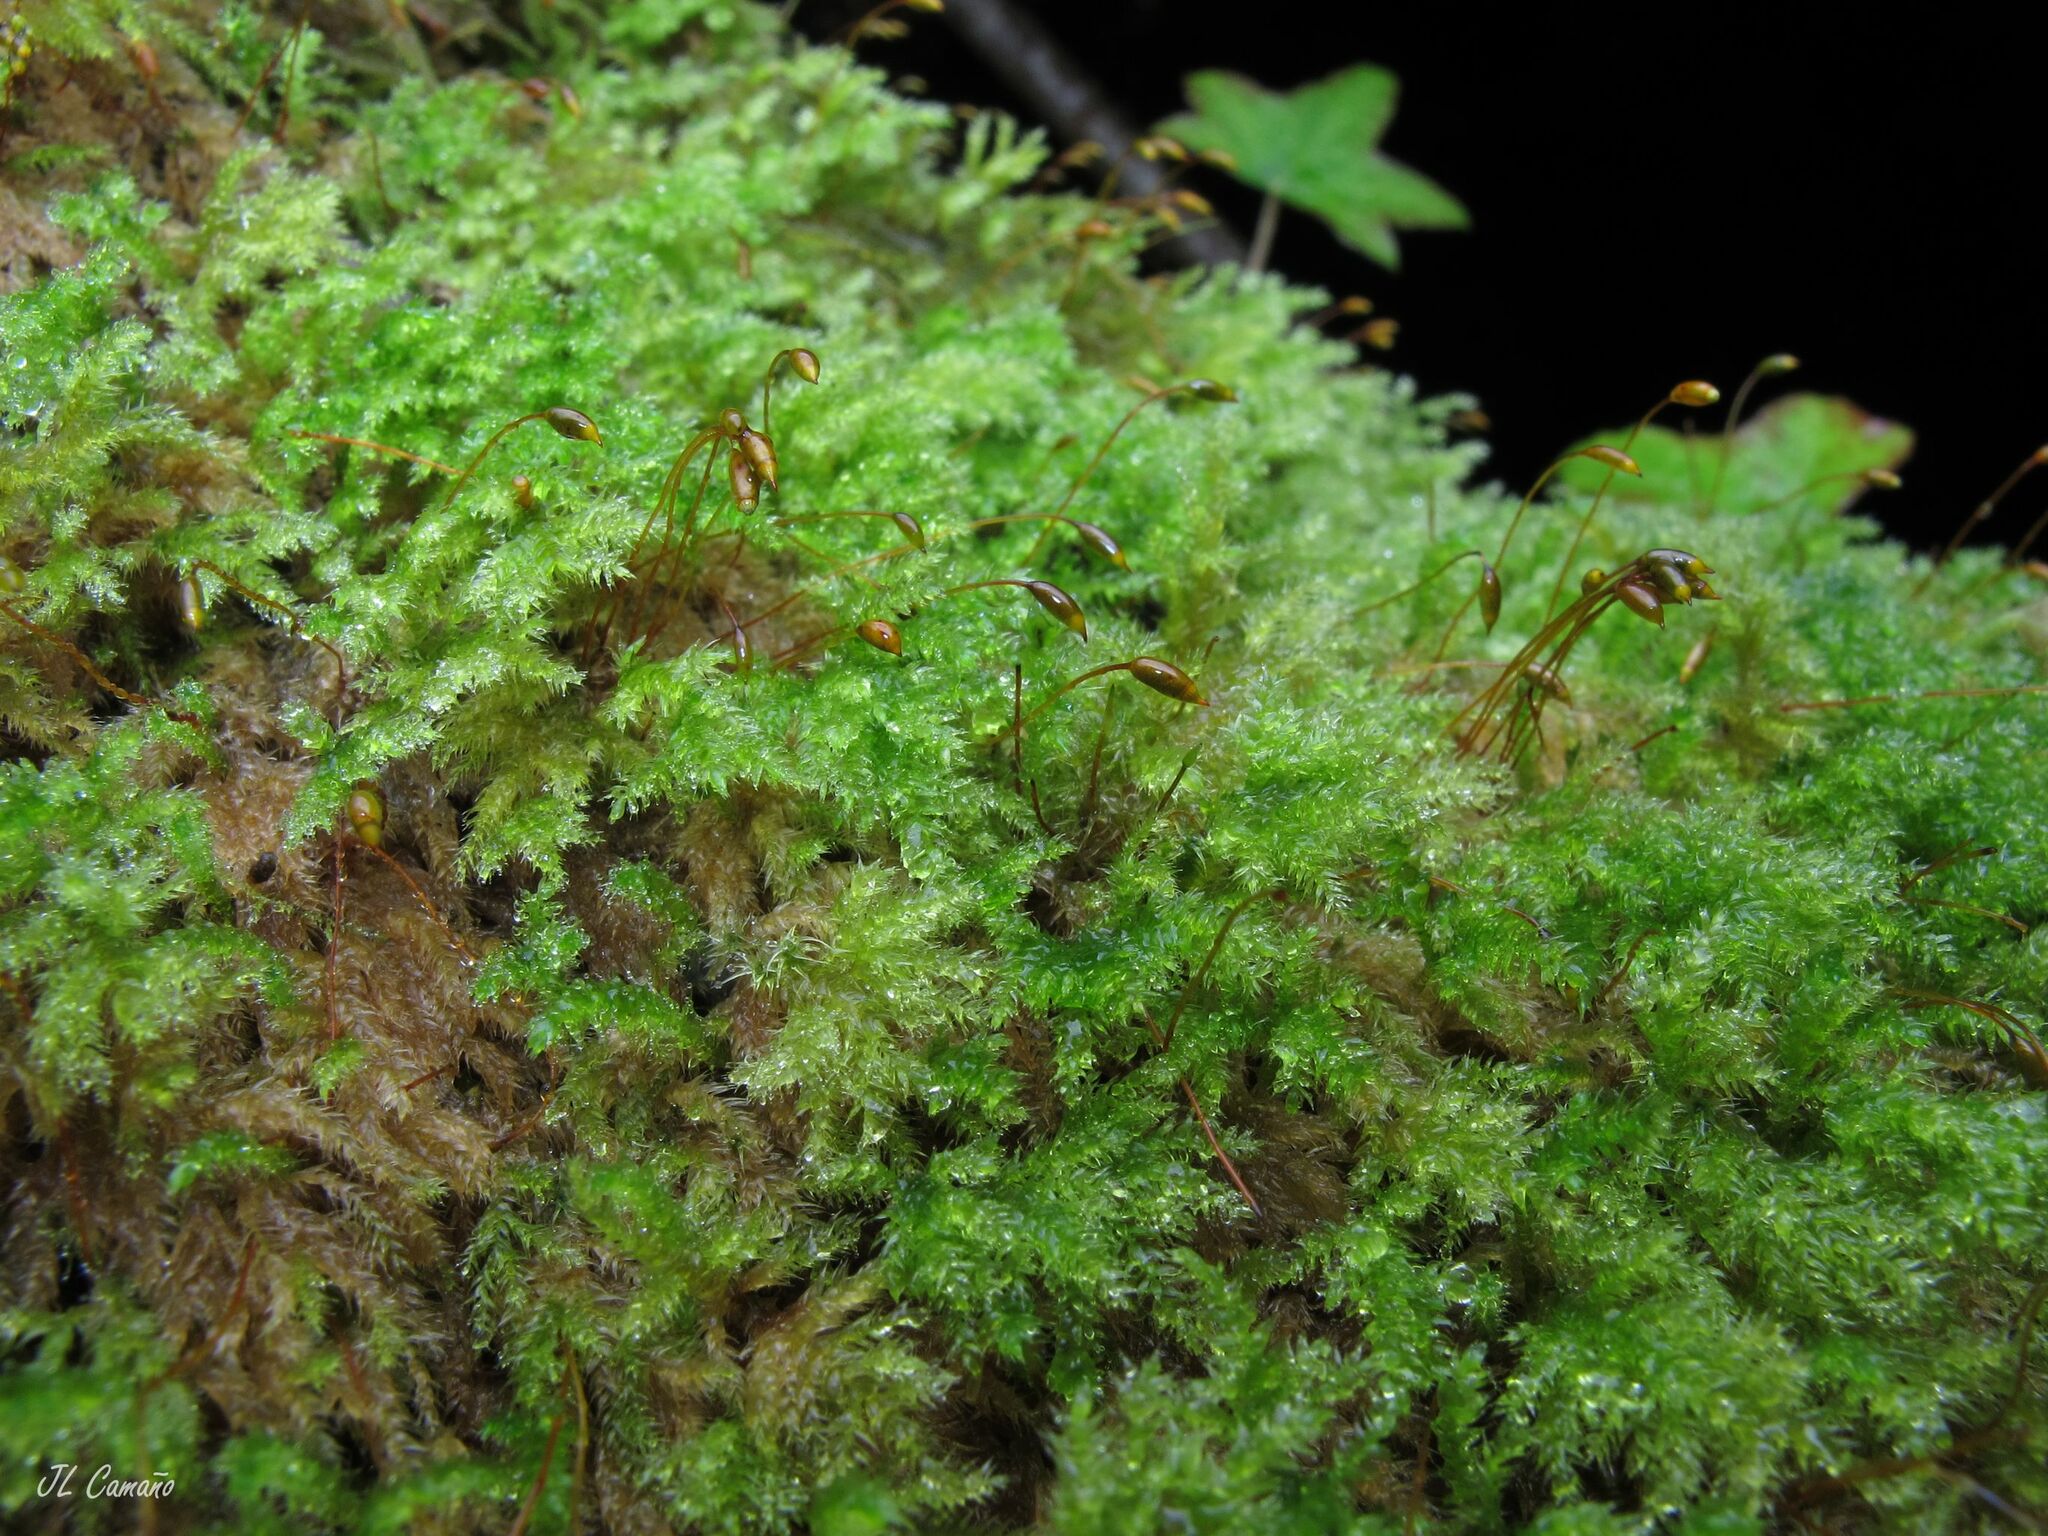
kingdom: Plantae
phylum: Bryophyta
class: Bryopsida
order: Hypnales
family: Lembophyllaceae
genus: Pseudisothecium
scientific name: Pseudisothecium myosuroides
